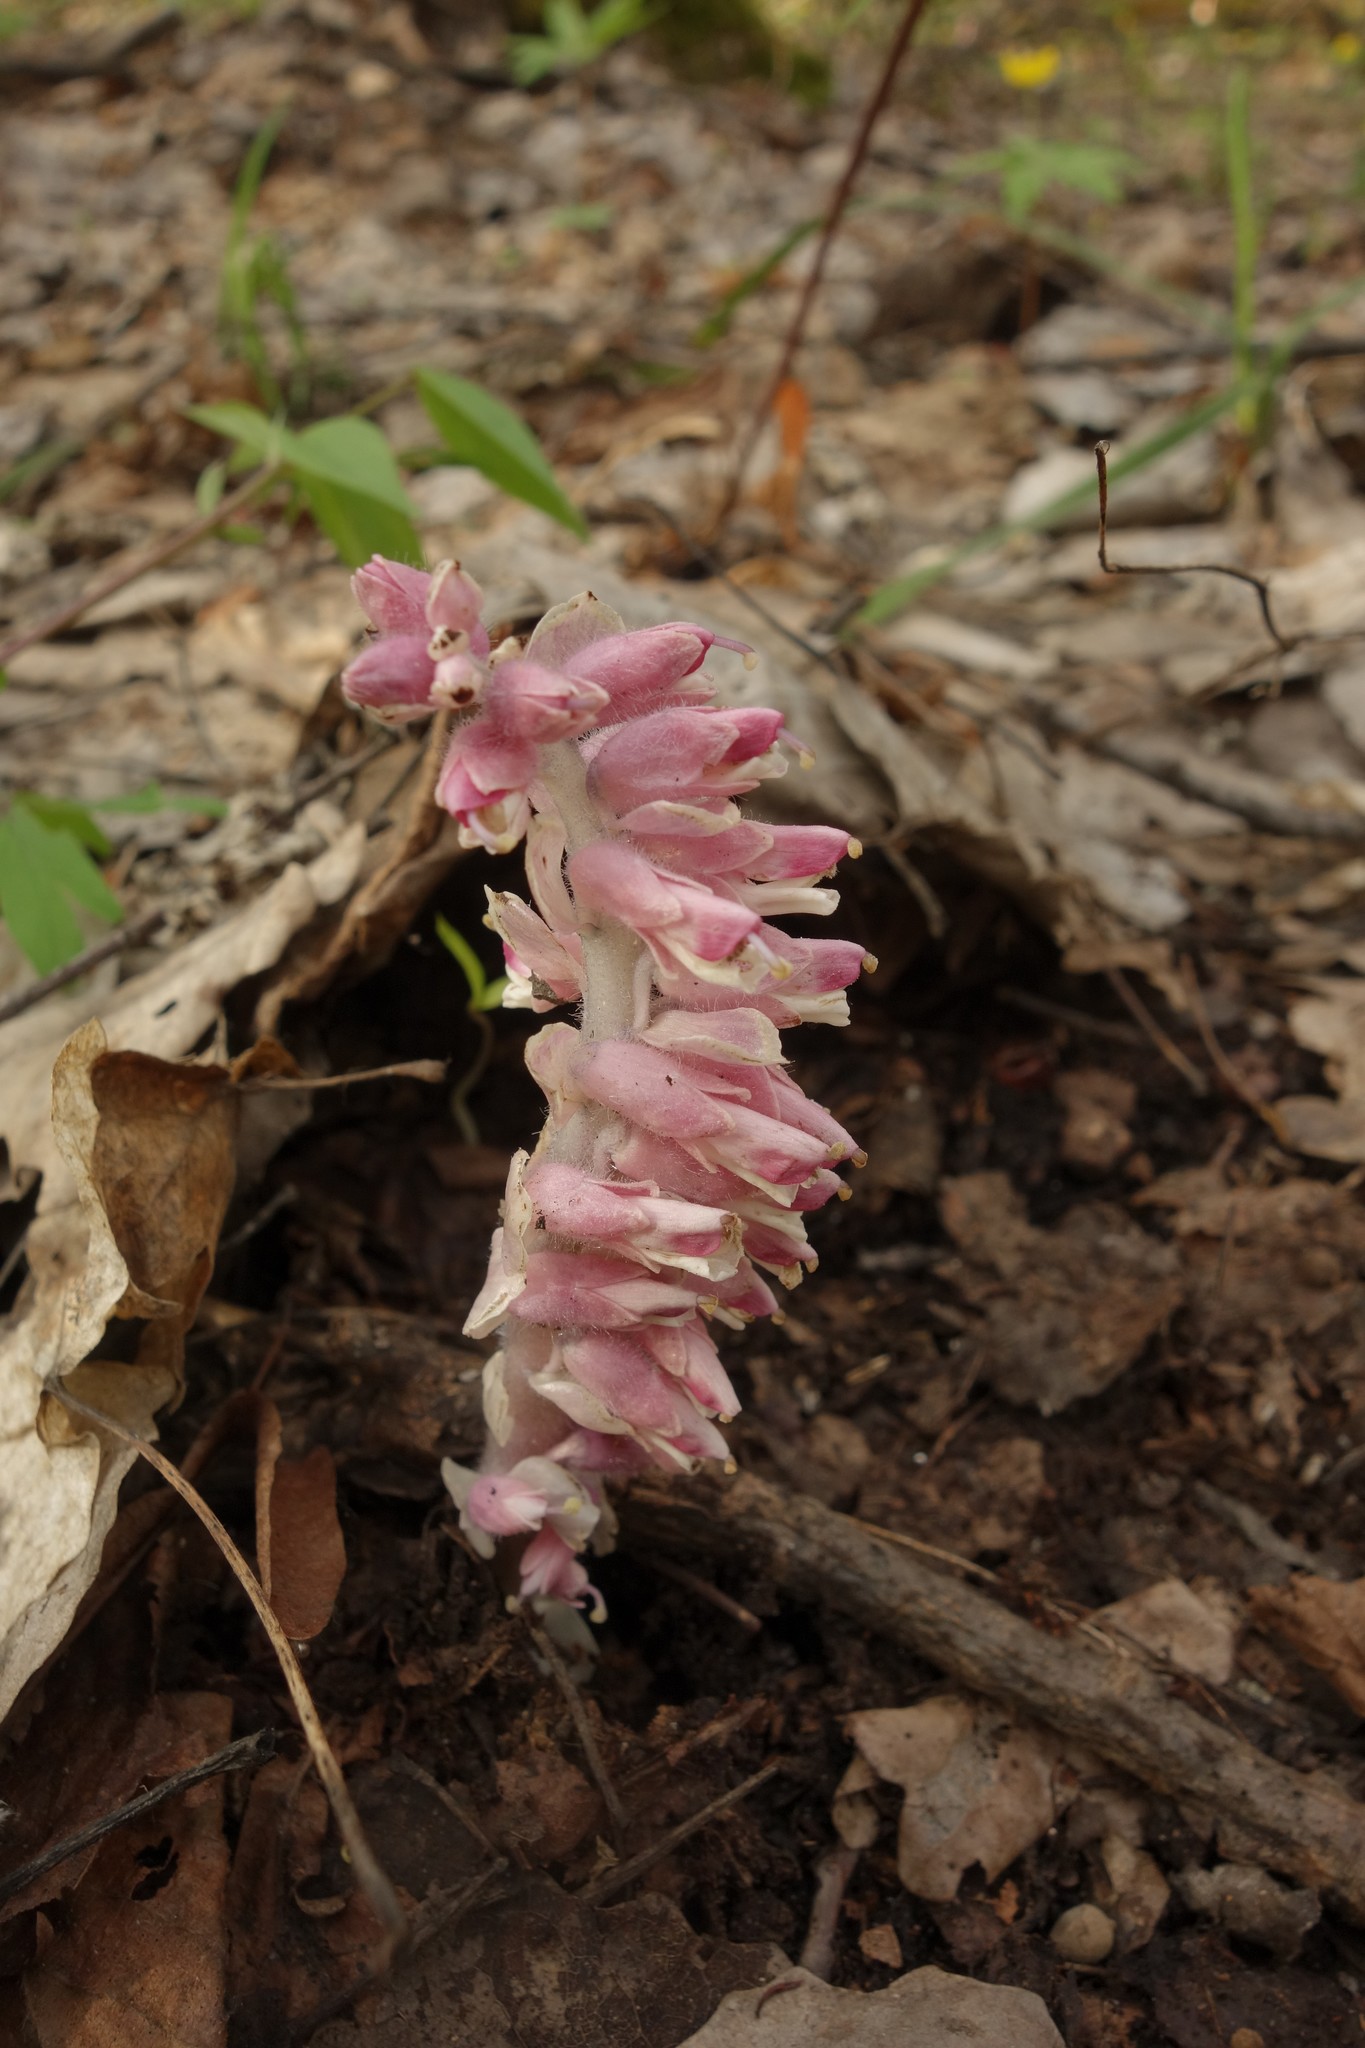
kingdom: Plantae
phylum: Tracheophyta
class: Magnoliopsida
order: Lamiales
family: Orobanchaceae
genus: Lathraea
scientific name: Lathraea squamaria
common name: Toothwort
